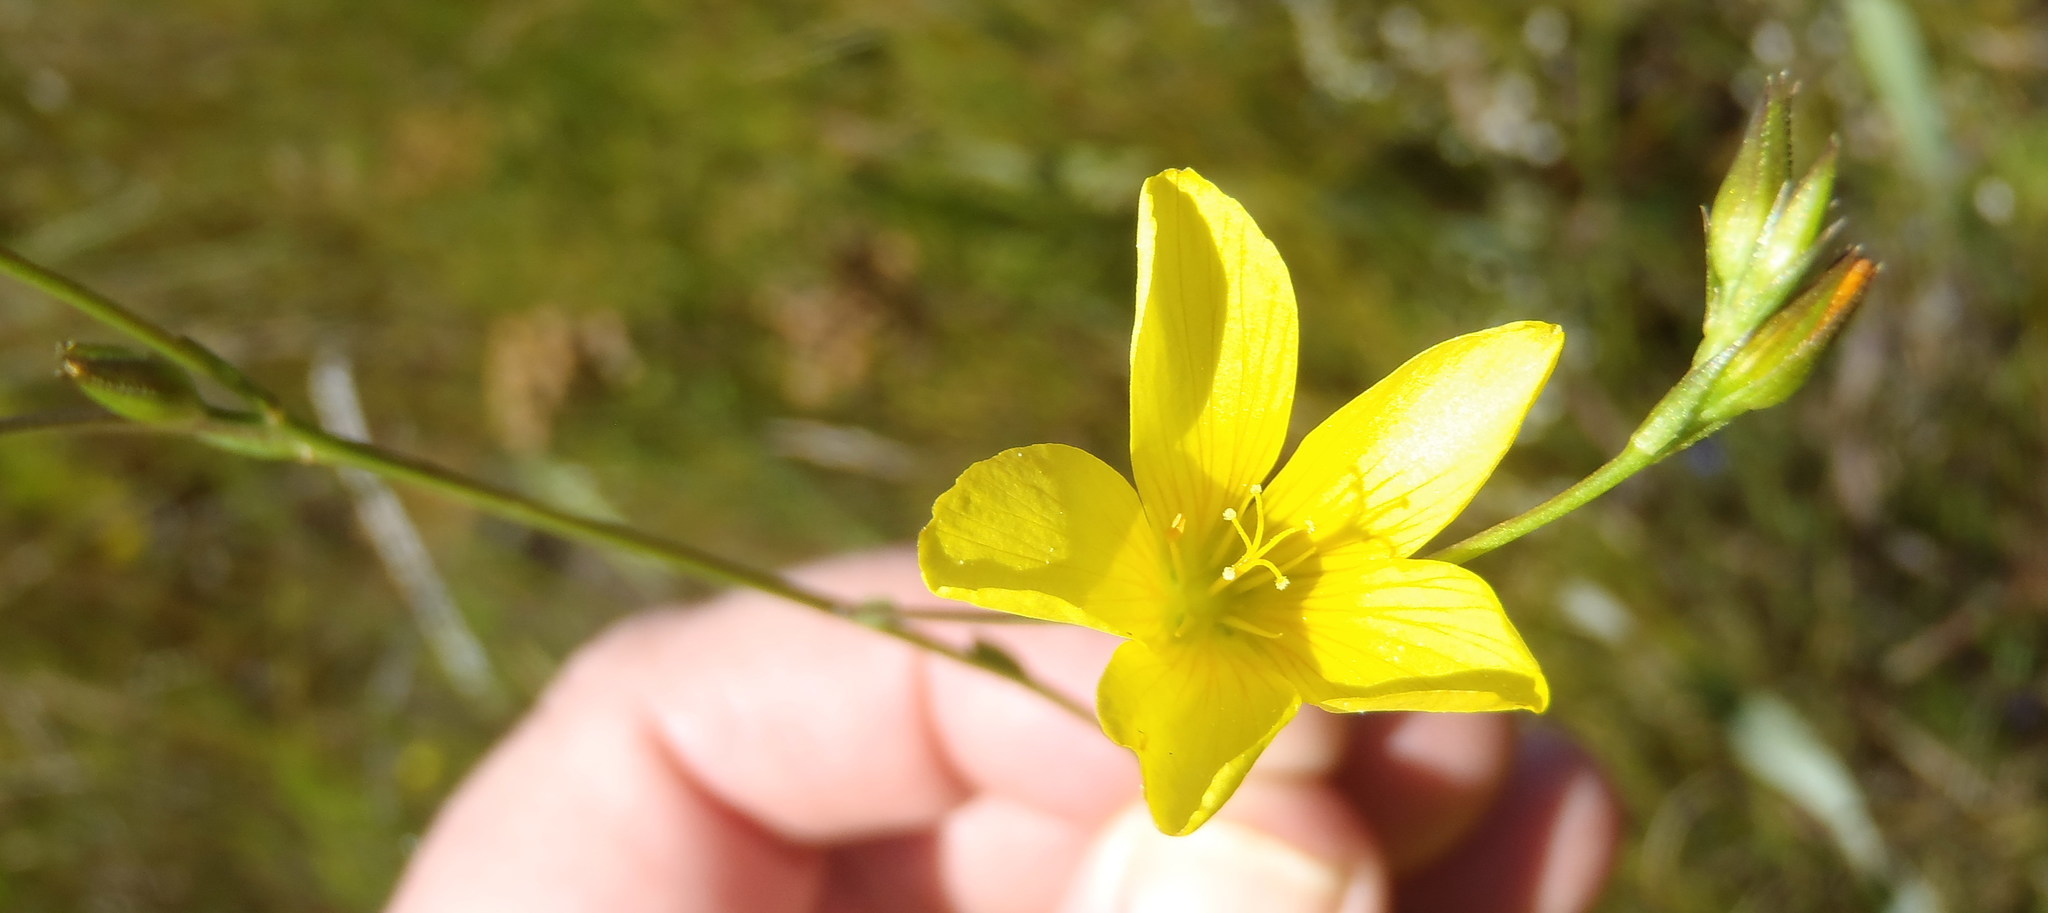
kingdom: Plantae
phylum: Tracheophyta
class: Magnoliopsida
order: Malpighiales
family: Linaceae
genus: Linum
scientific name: Linum africanum
